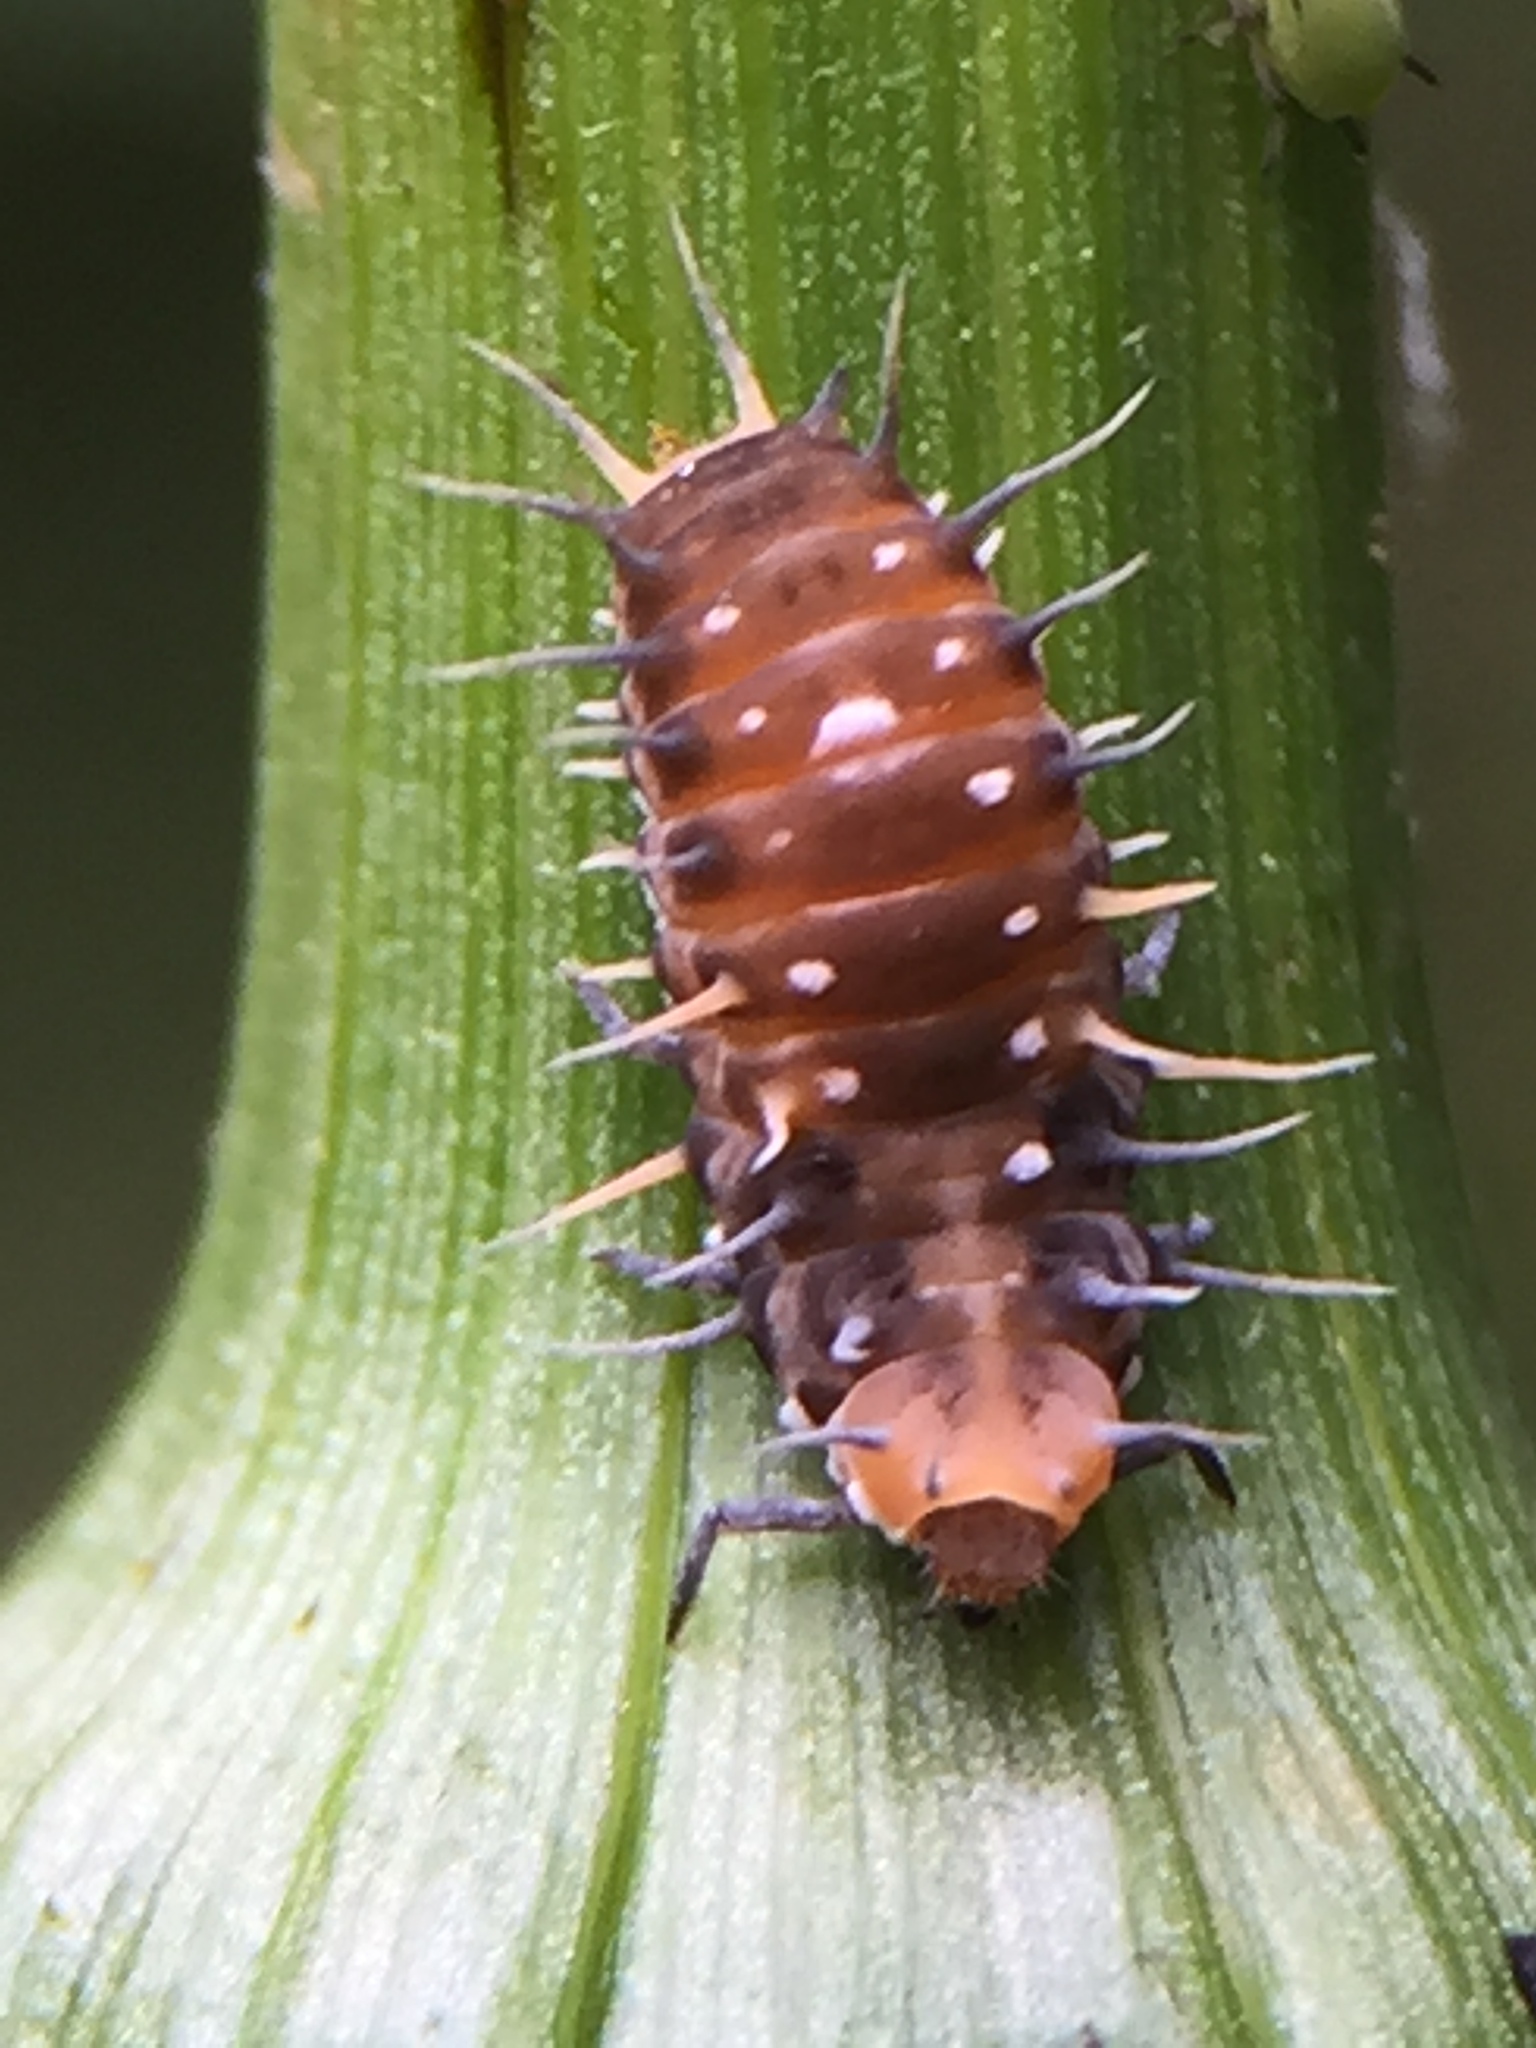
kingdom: Animalia
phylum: Arthropoda
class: Insecta
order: Coleoptera
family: Coccinellidae
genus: Scymnodes
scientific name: Scymnodes lividigaster
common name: Yellowshouldered lady beetle
